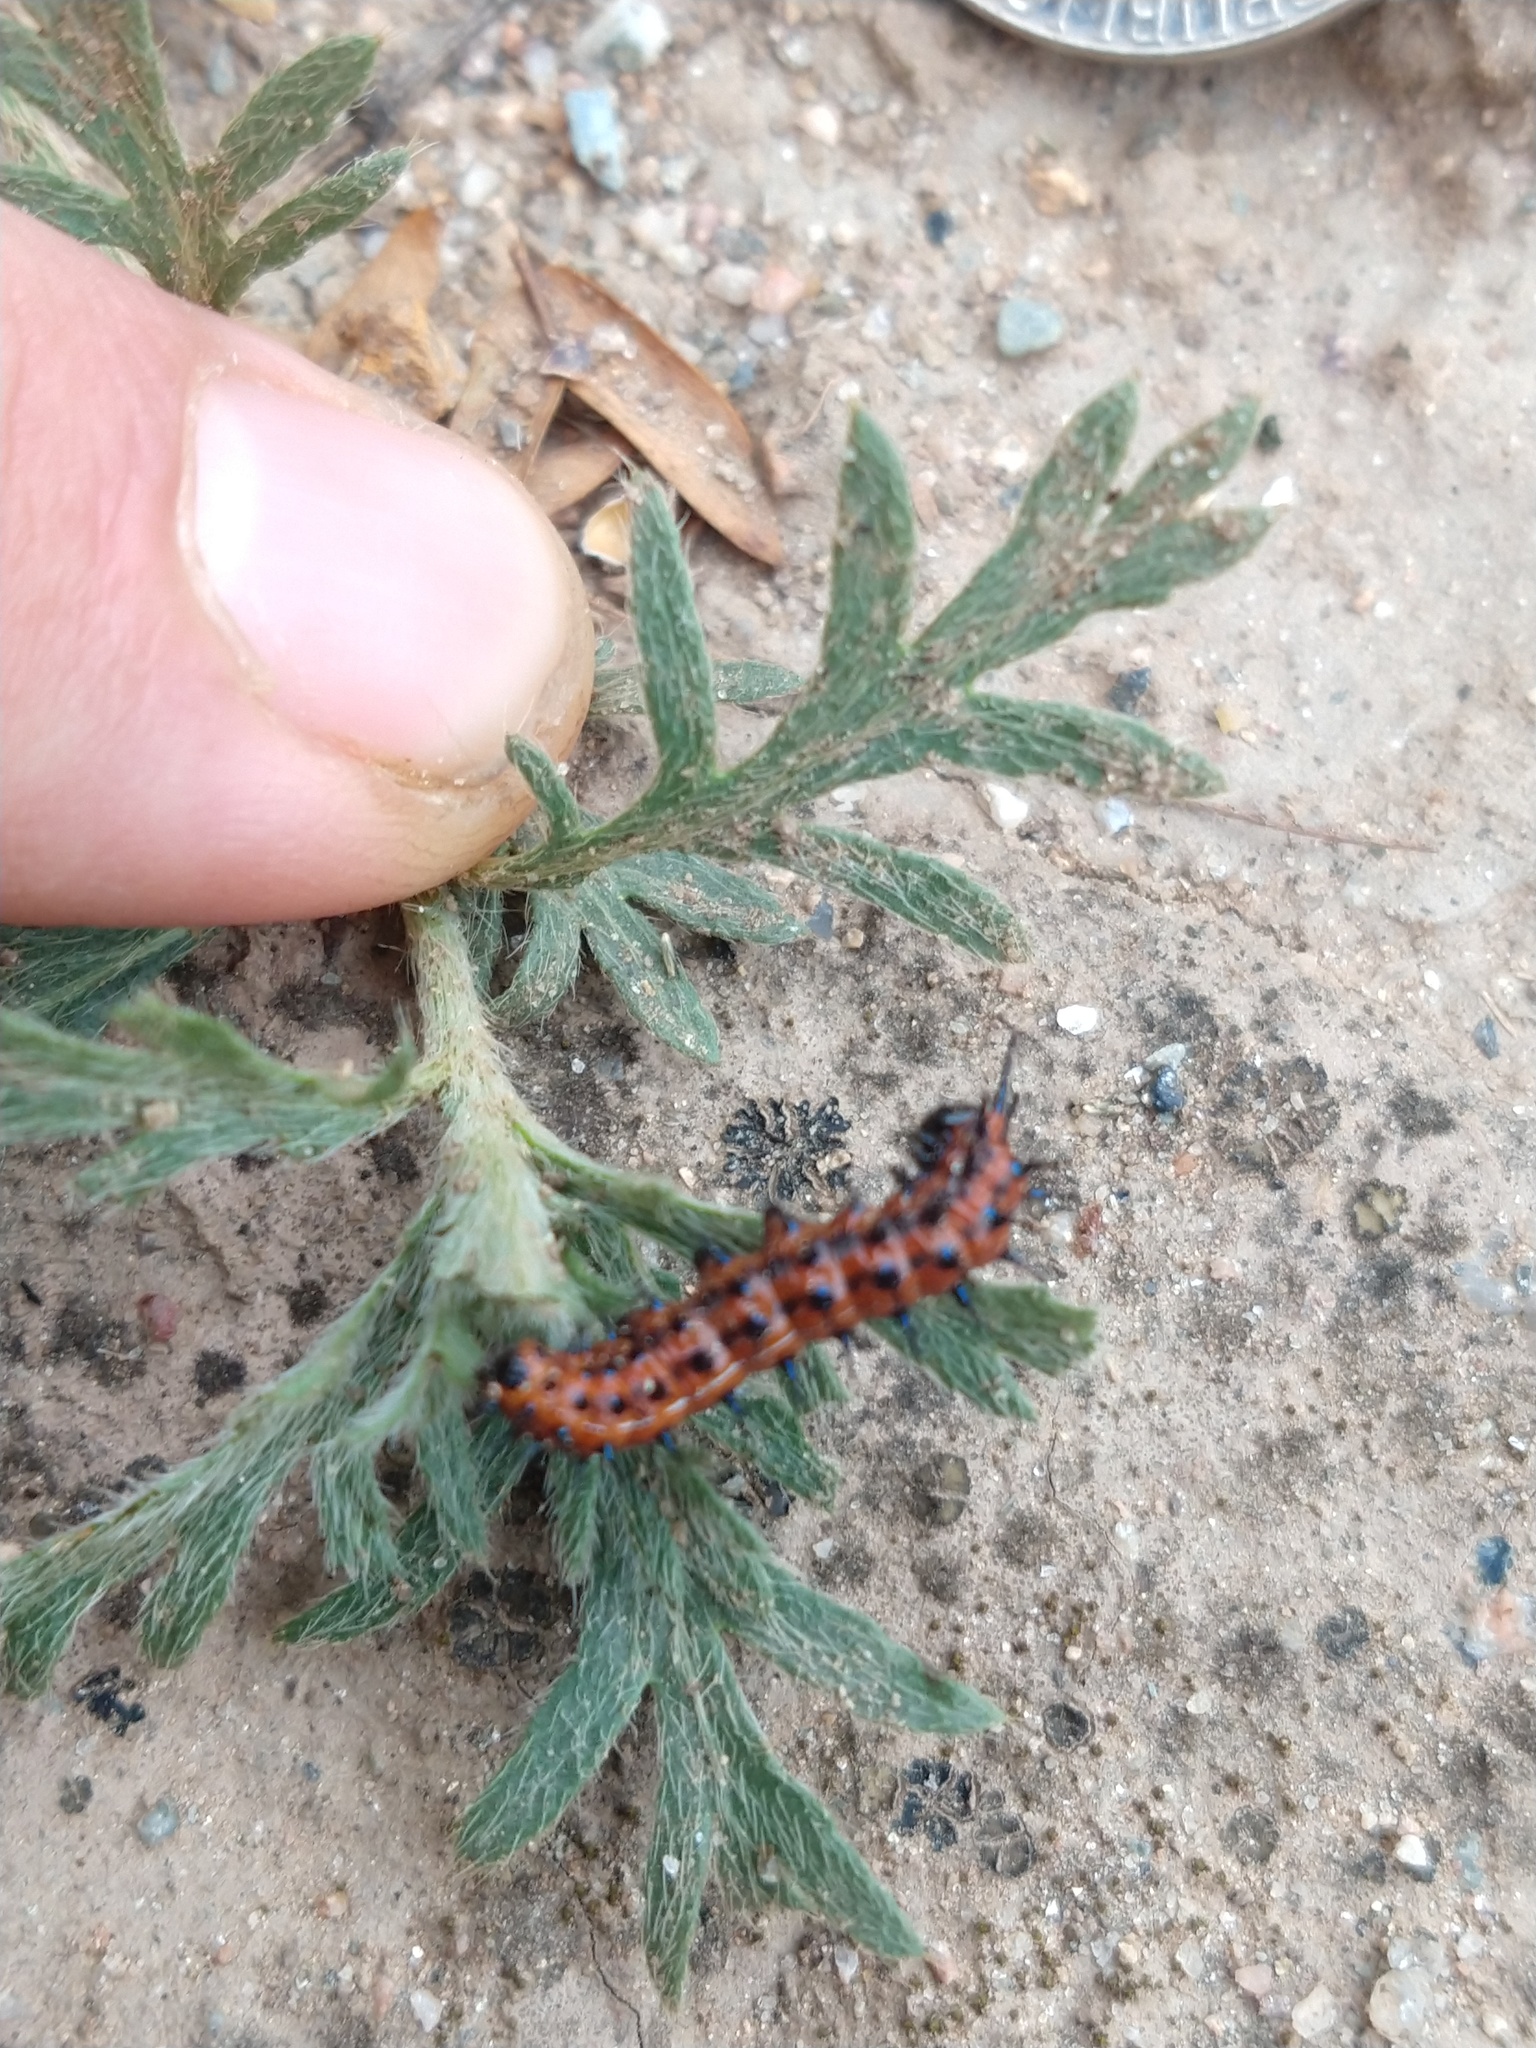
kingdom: Animalia
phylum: Arthropoda
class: Insecta
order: Lepidoptera
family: Nymphalidae
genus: Euptoieta
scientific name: Euptoieta hortensia
